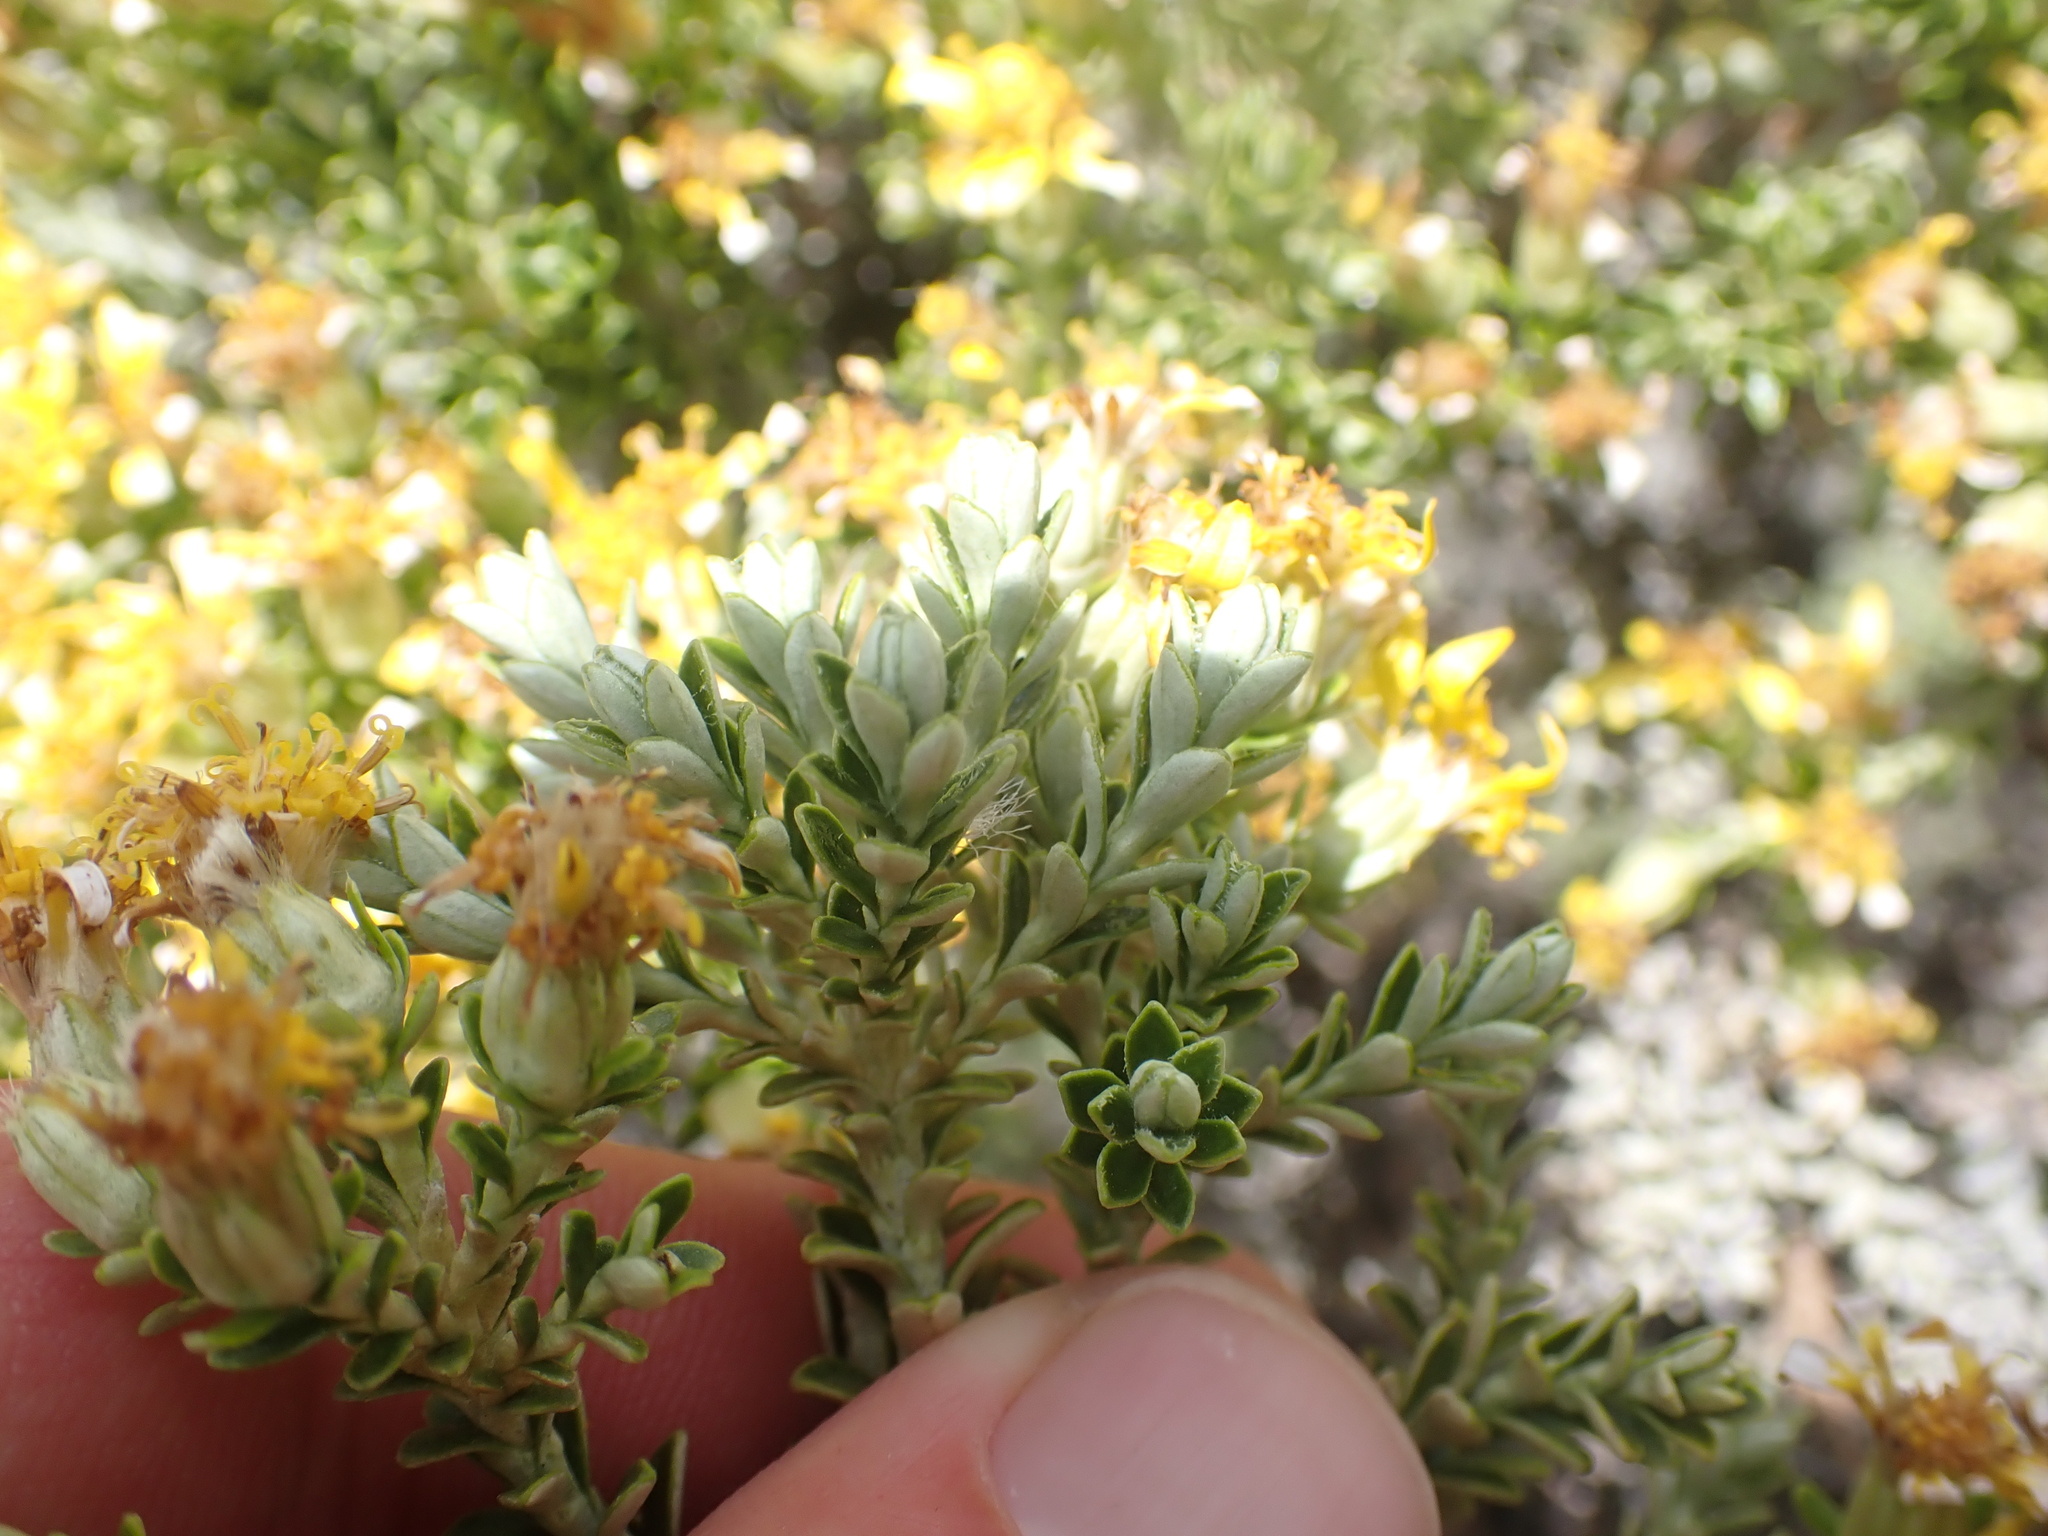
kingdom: Plantae
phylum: Tracheophyta
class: Magnoliopsida
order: Asterales
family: Asteraceae
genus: Brachyglottis
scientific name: Brachyglottis cassinioides
